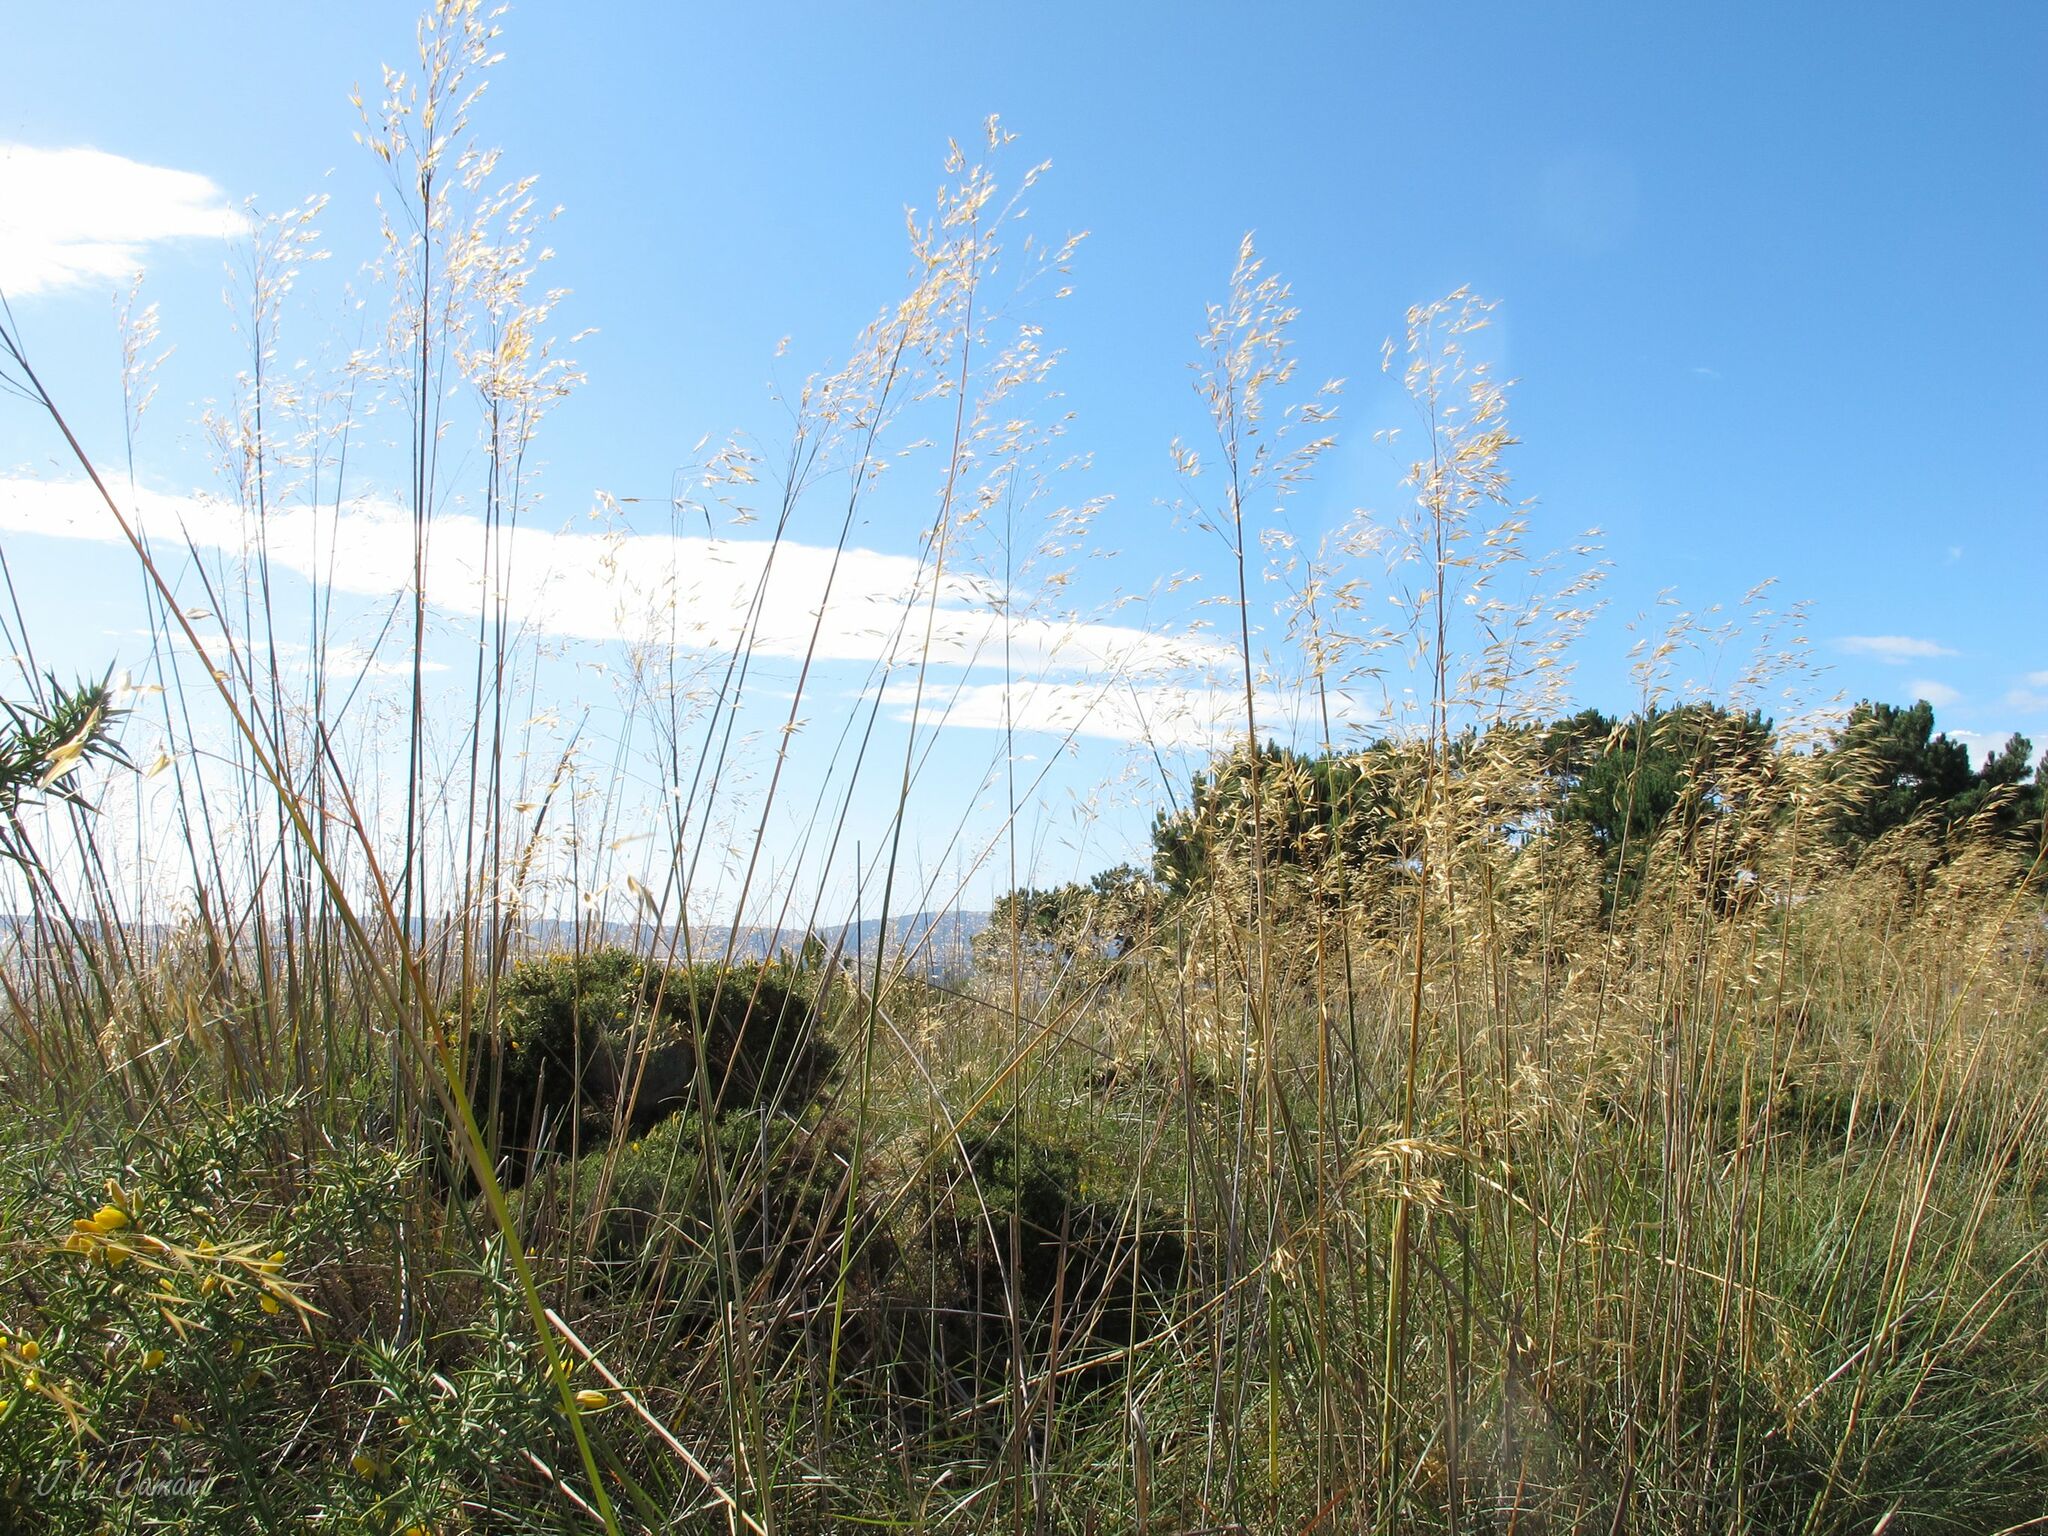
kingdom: Plantae
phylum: Tracheophyta
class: Liliopsida
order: Poales
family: Poaceae
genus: Celtica
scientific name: Celtica gigantea
